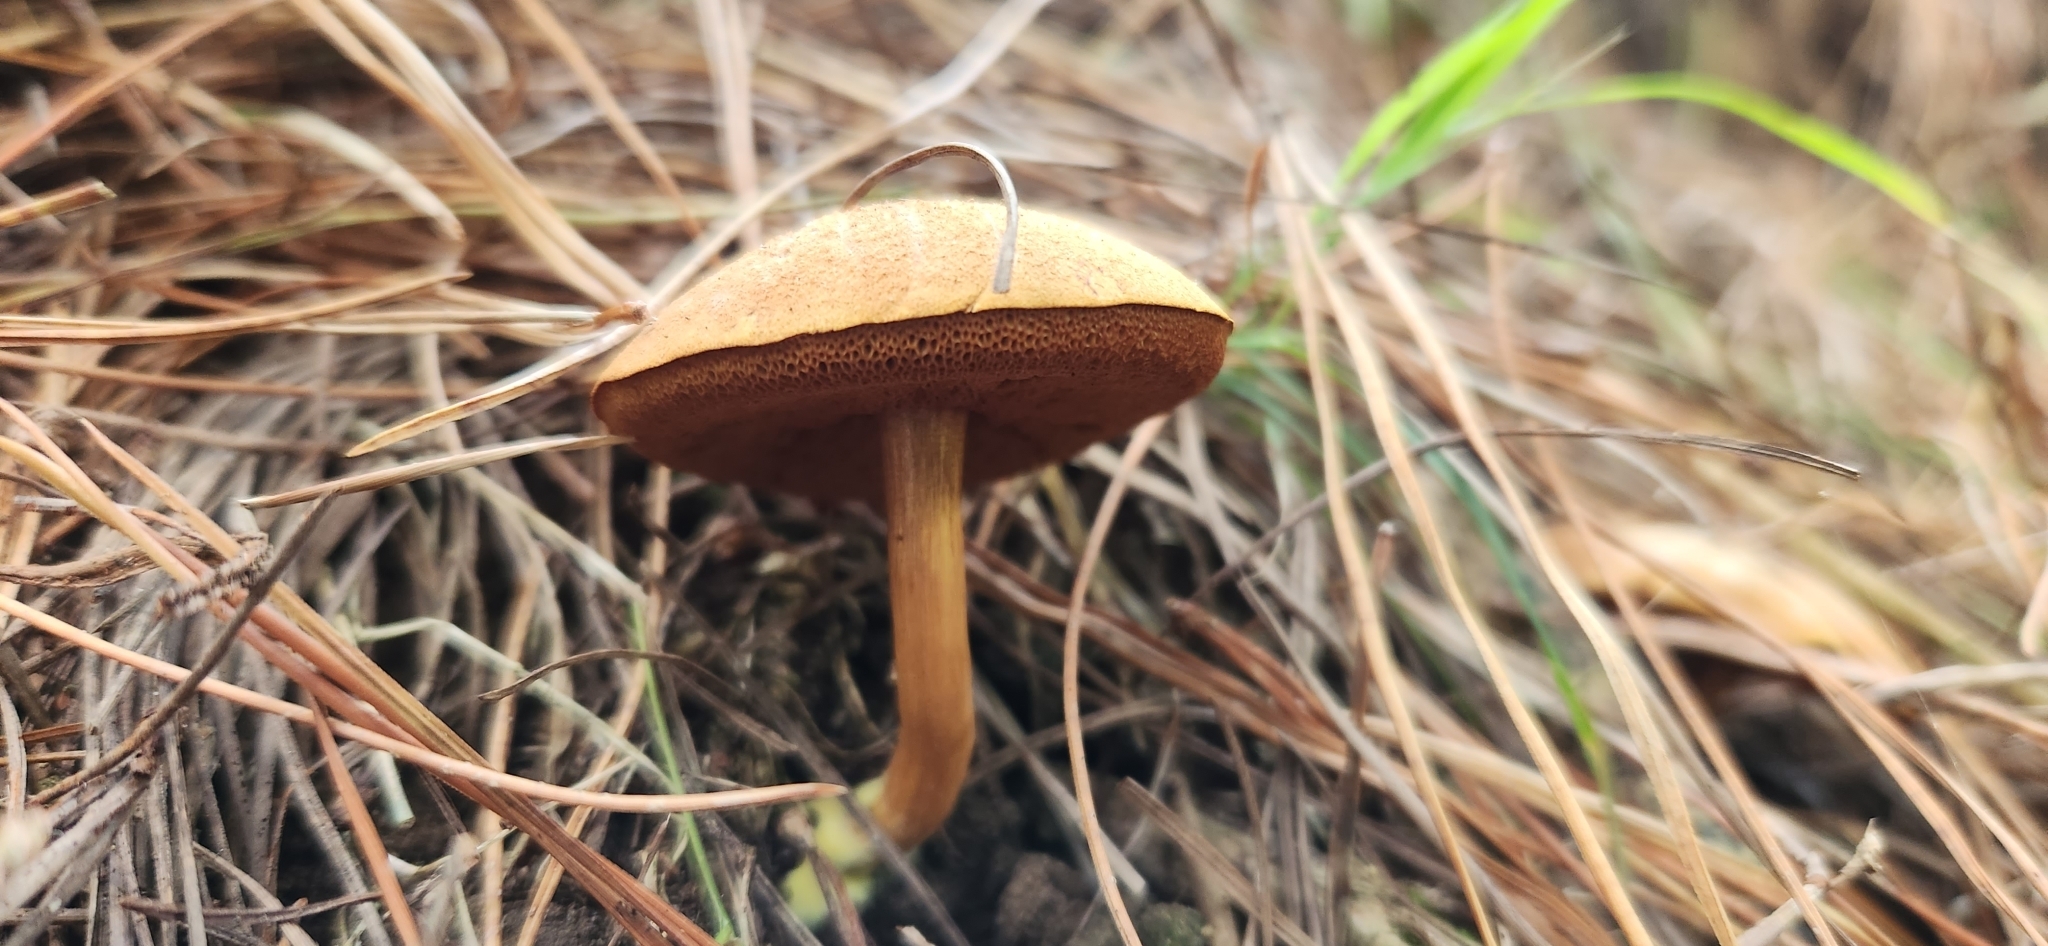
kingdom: Fungi
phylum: Basidiomycota
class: Agaricomycetes
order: Boletales
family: Boletaceae
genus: Chalciporus
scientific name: Chalciporus piperatus
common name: Peppery bolete
